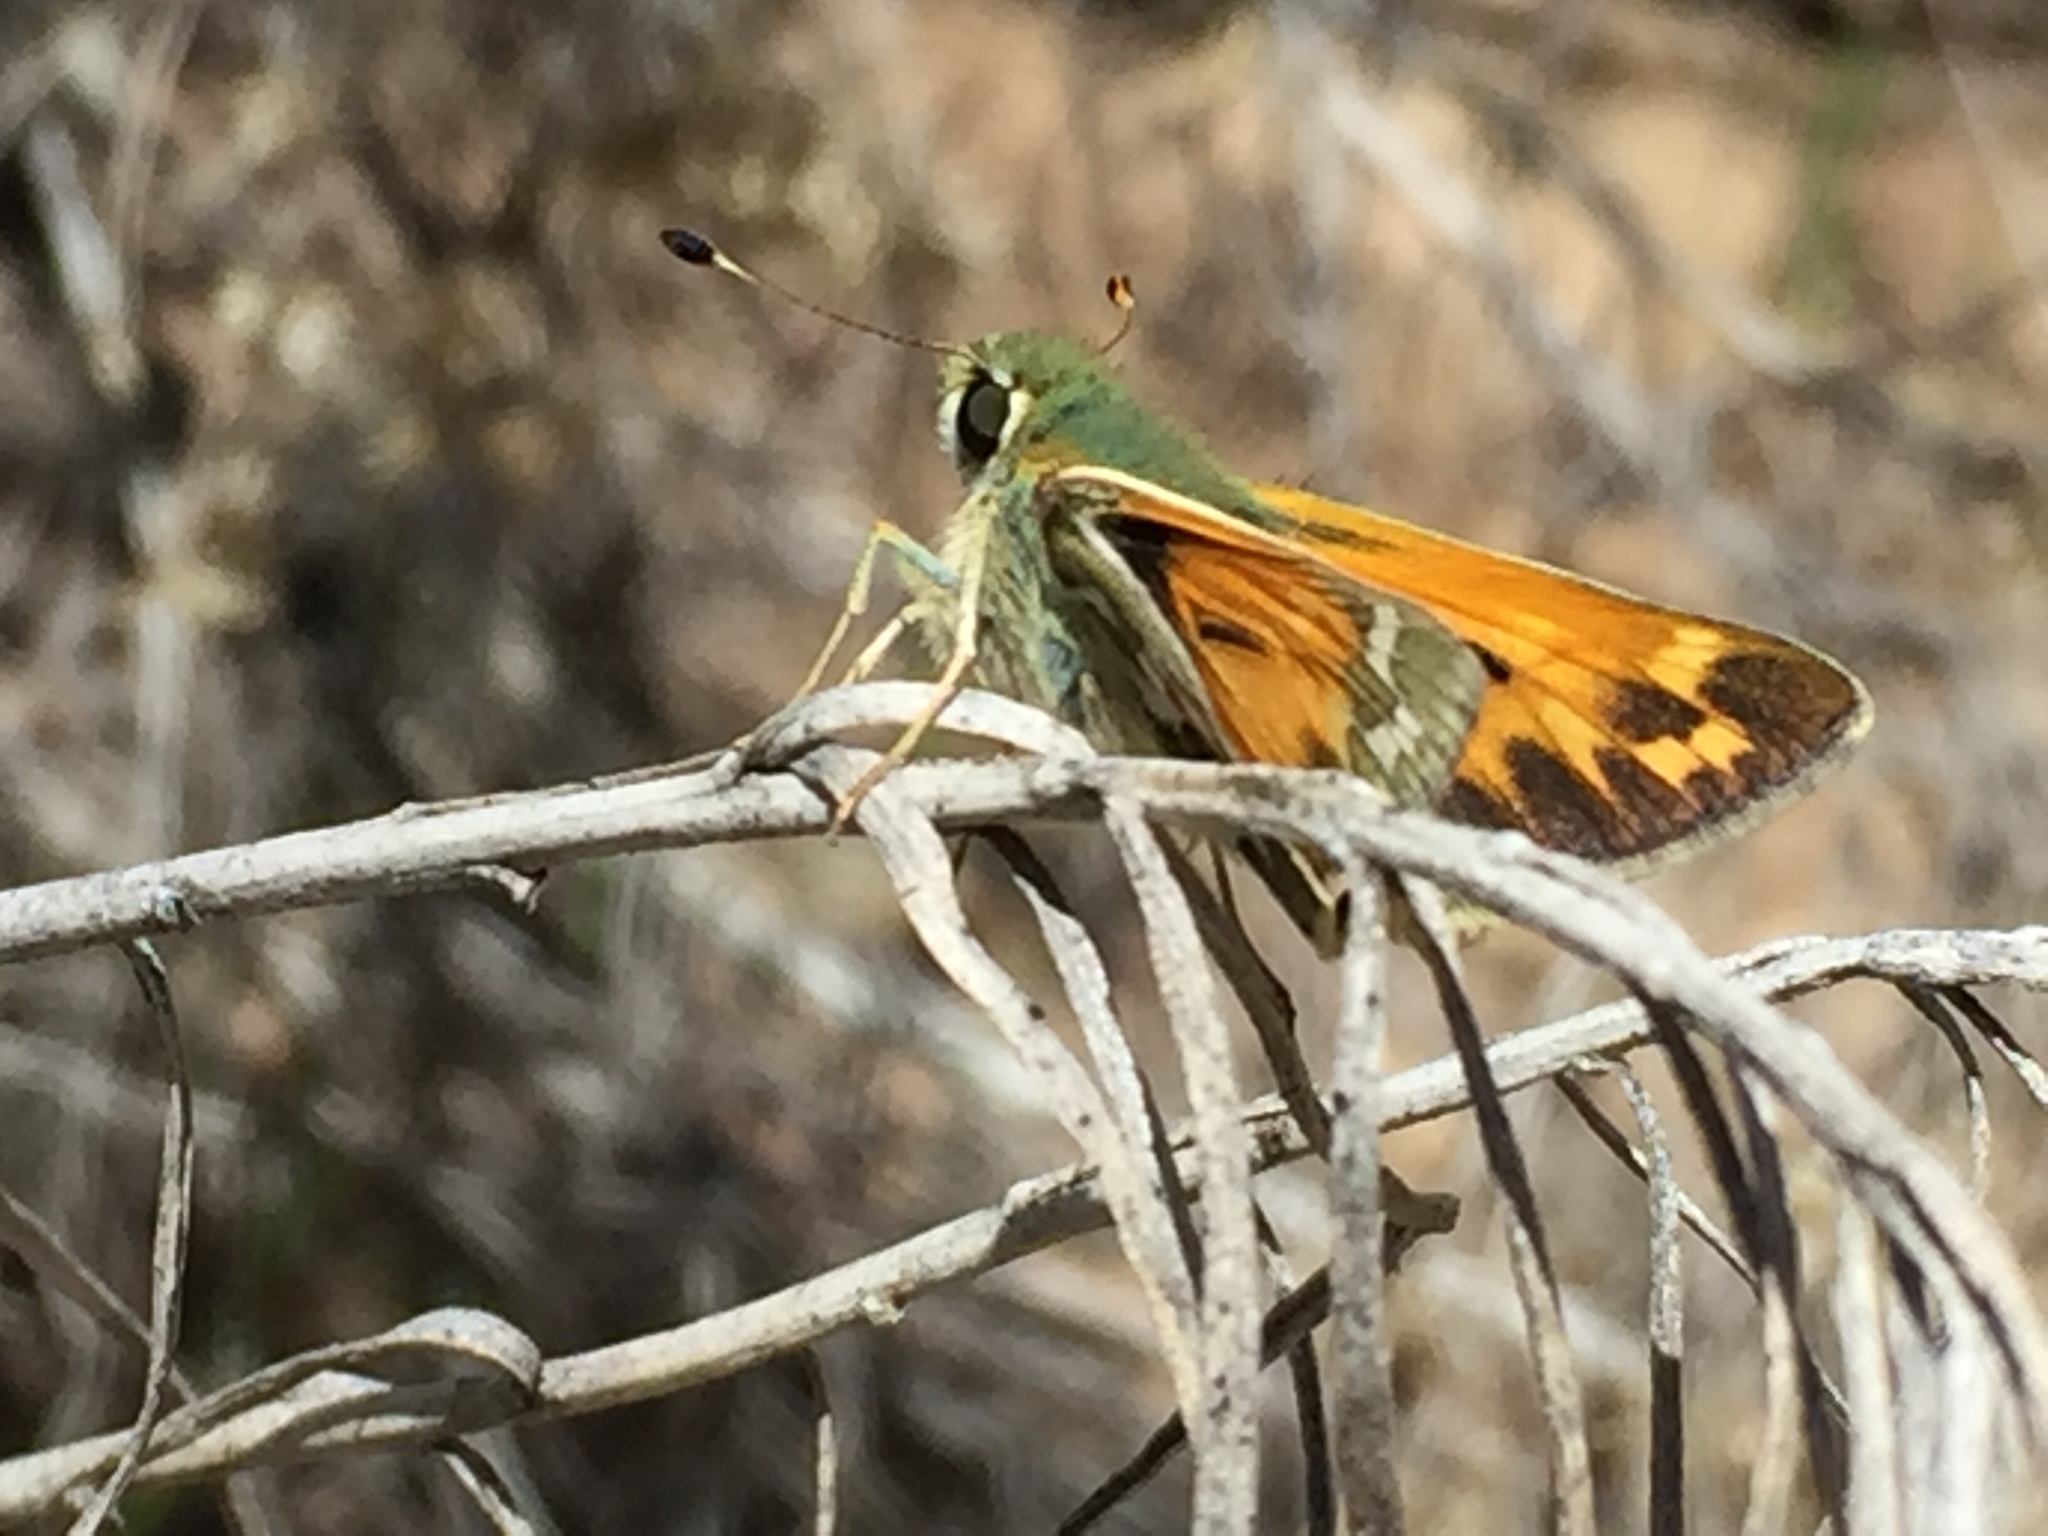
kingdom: Animalia
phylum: Arthropoda
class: Insecta
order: Lepidoptera
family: Hesperiidae
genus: Hesperia
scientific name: Hesperia juba
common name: Juba skipper
